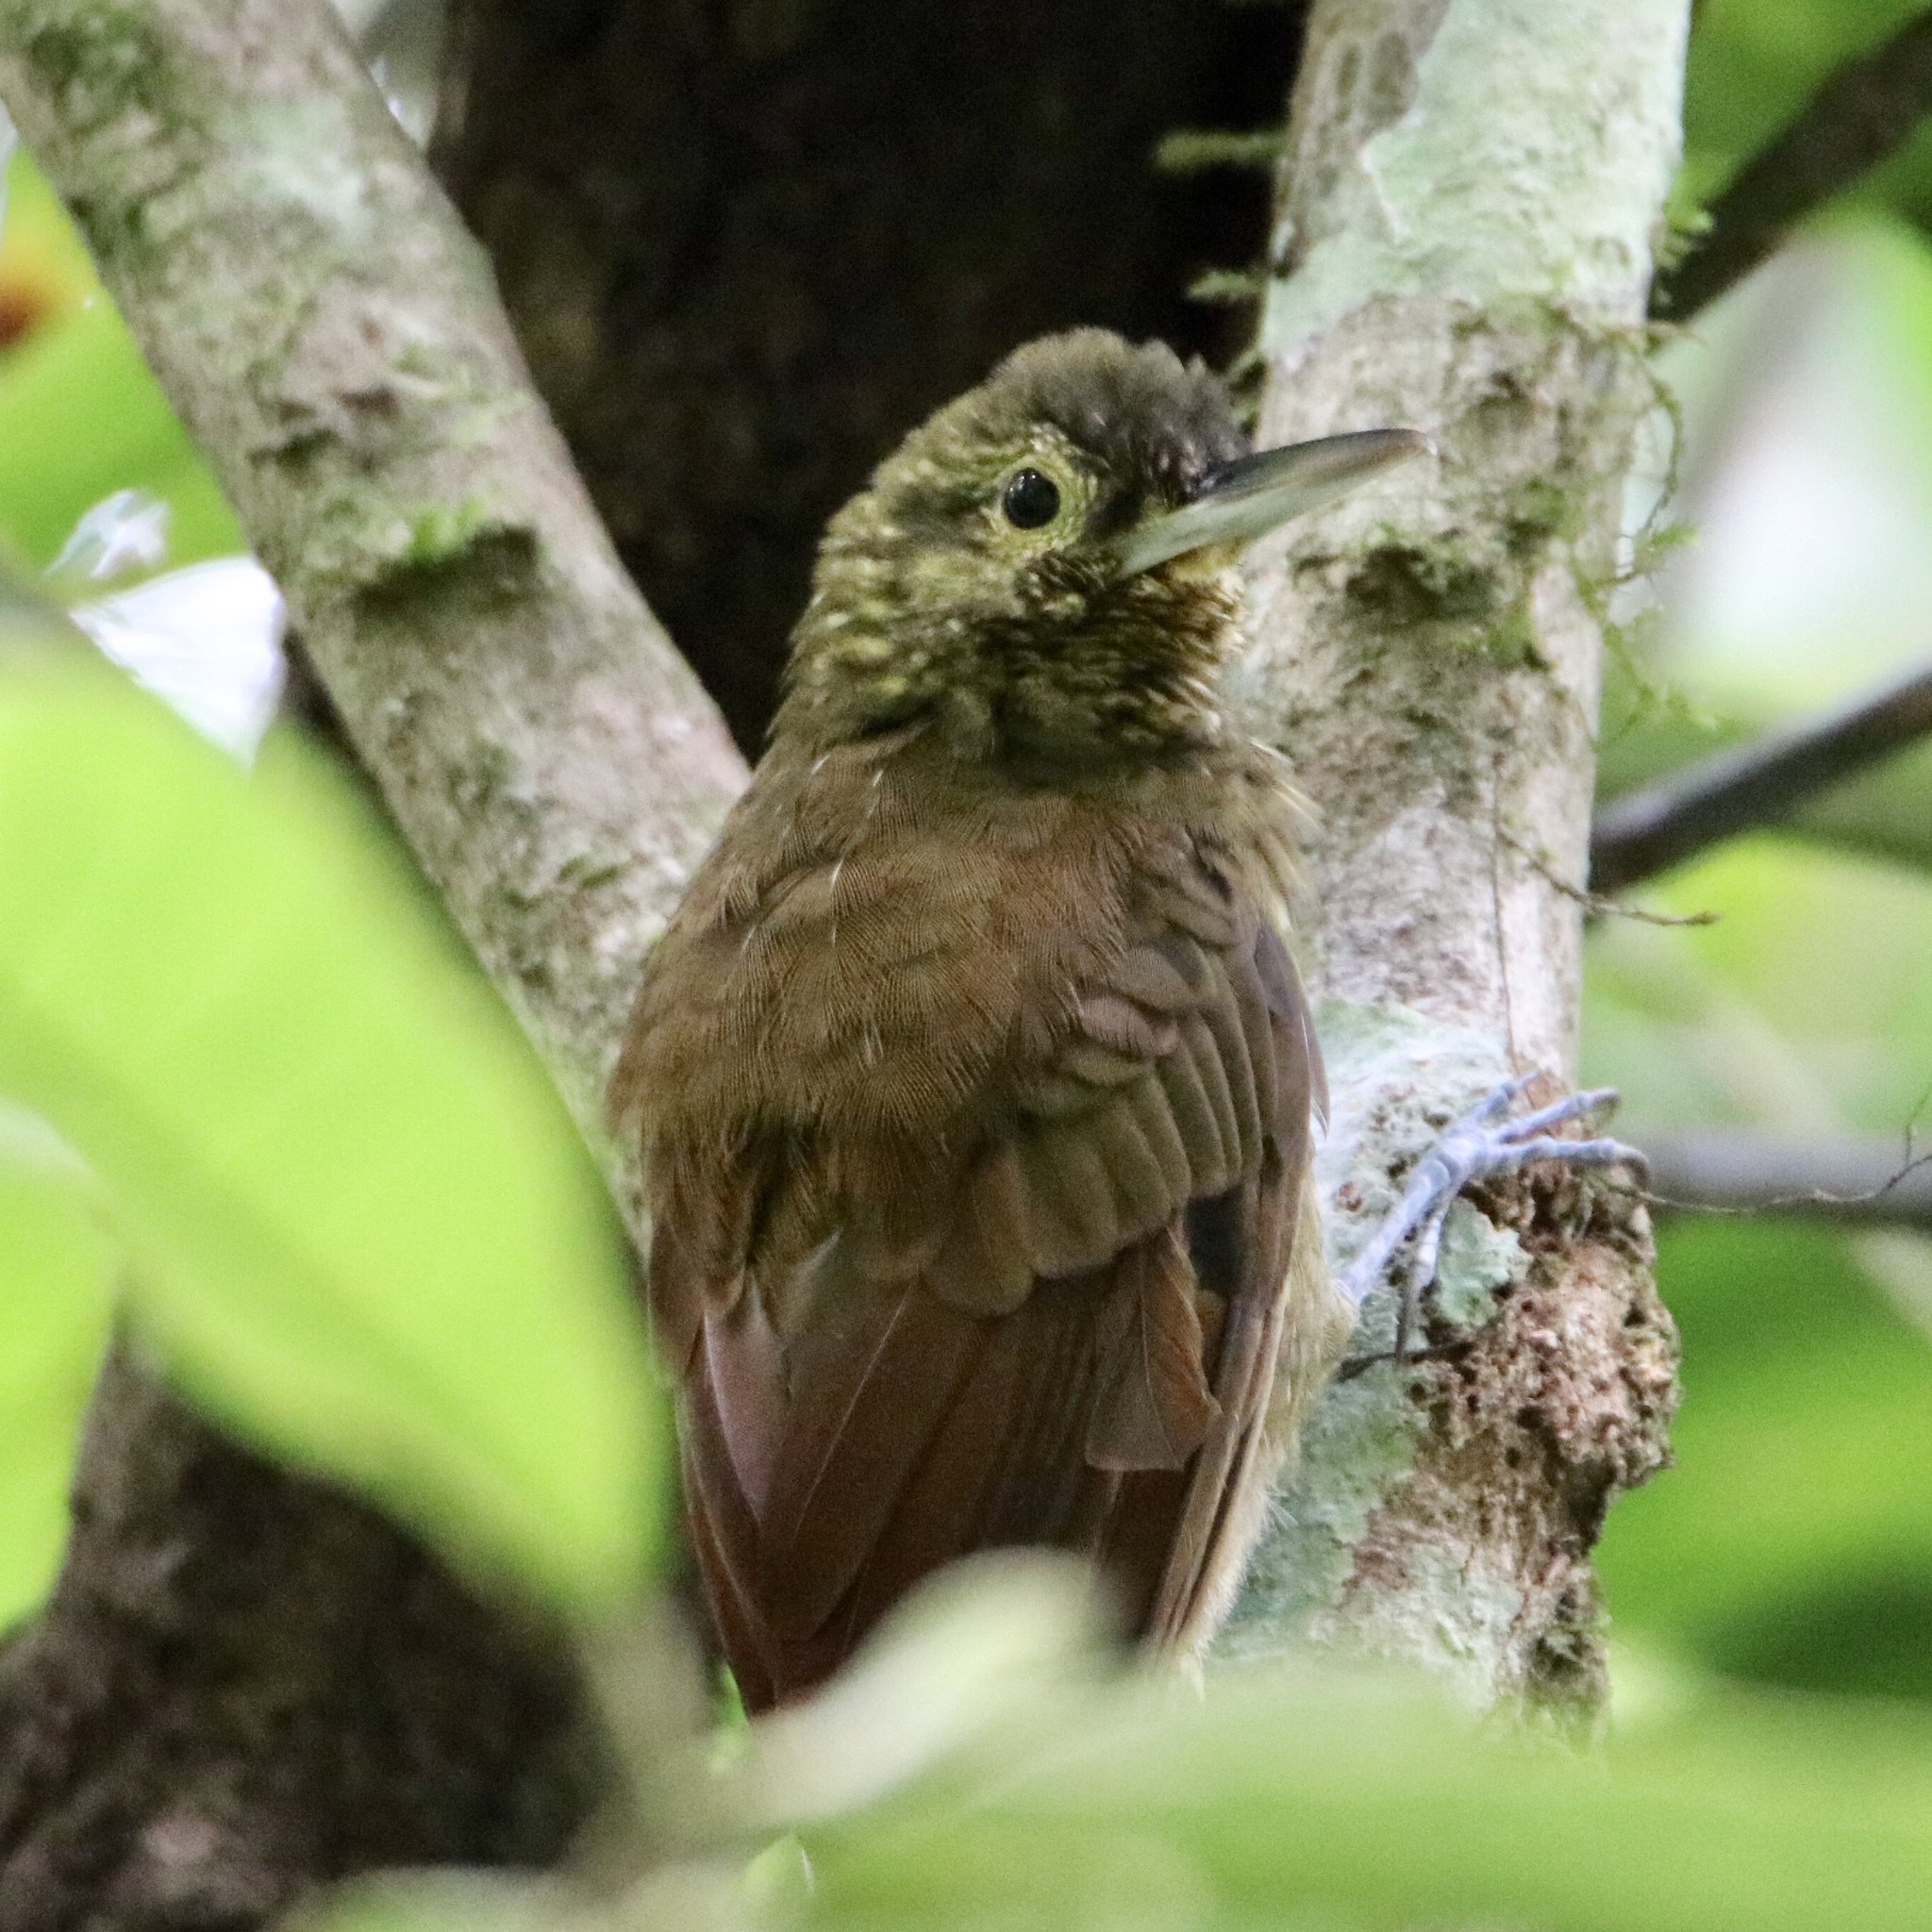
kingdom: Animalia
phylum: Chordata
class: Aves
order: Passeriformes
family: Furnariidae
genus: Xiphorhynchus
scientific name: Xiphorhynchus erythropygius
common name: Spotted woodcreeper
